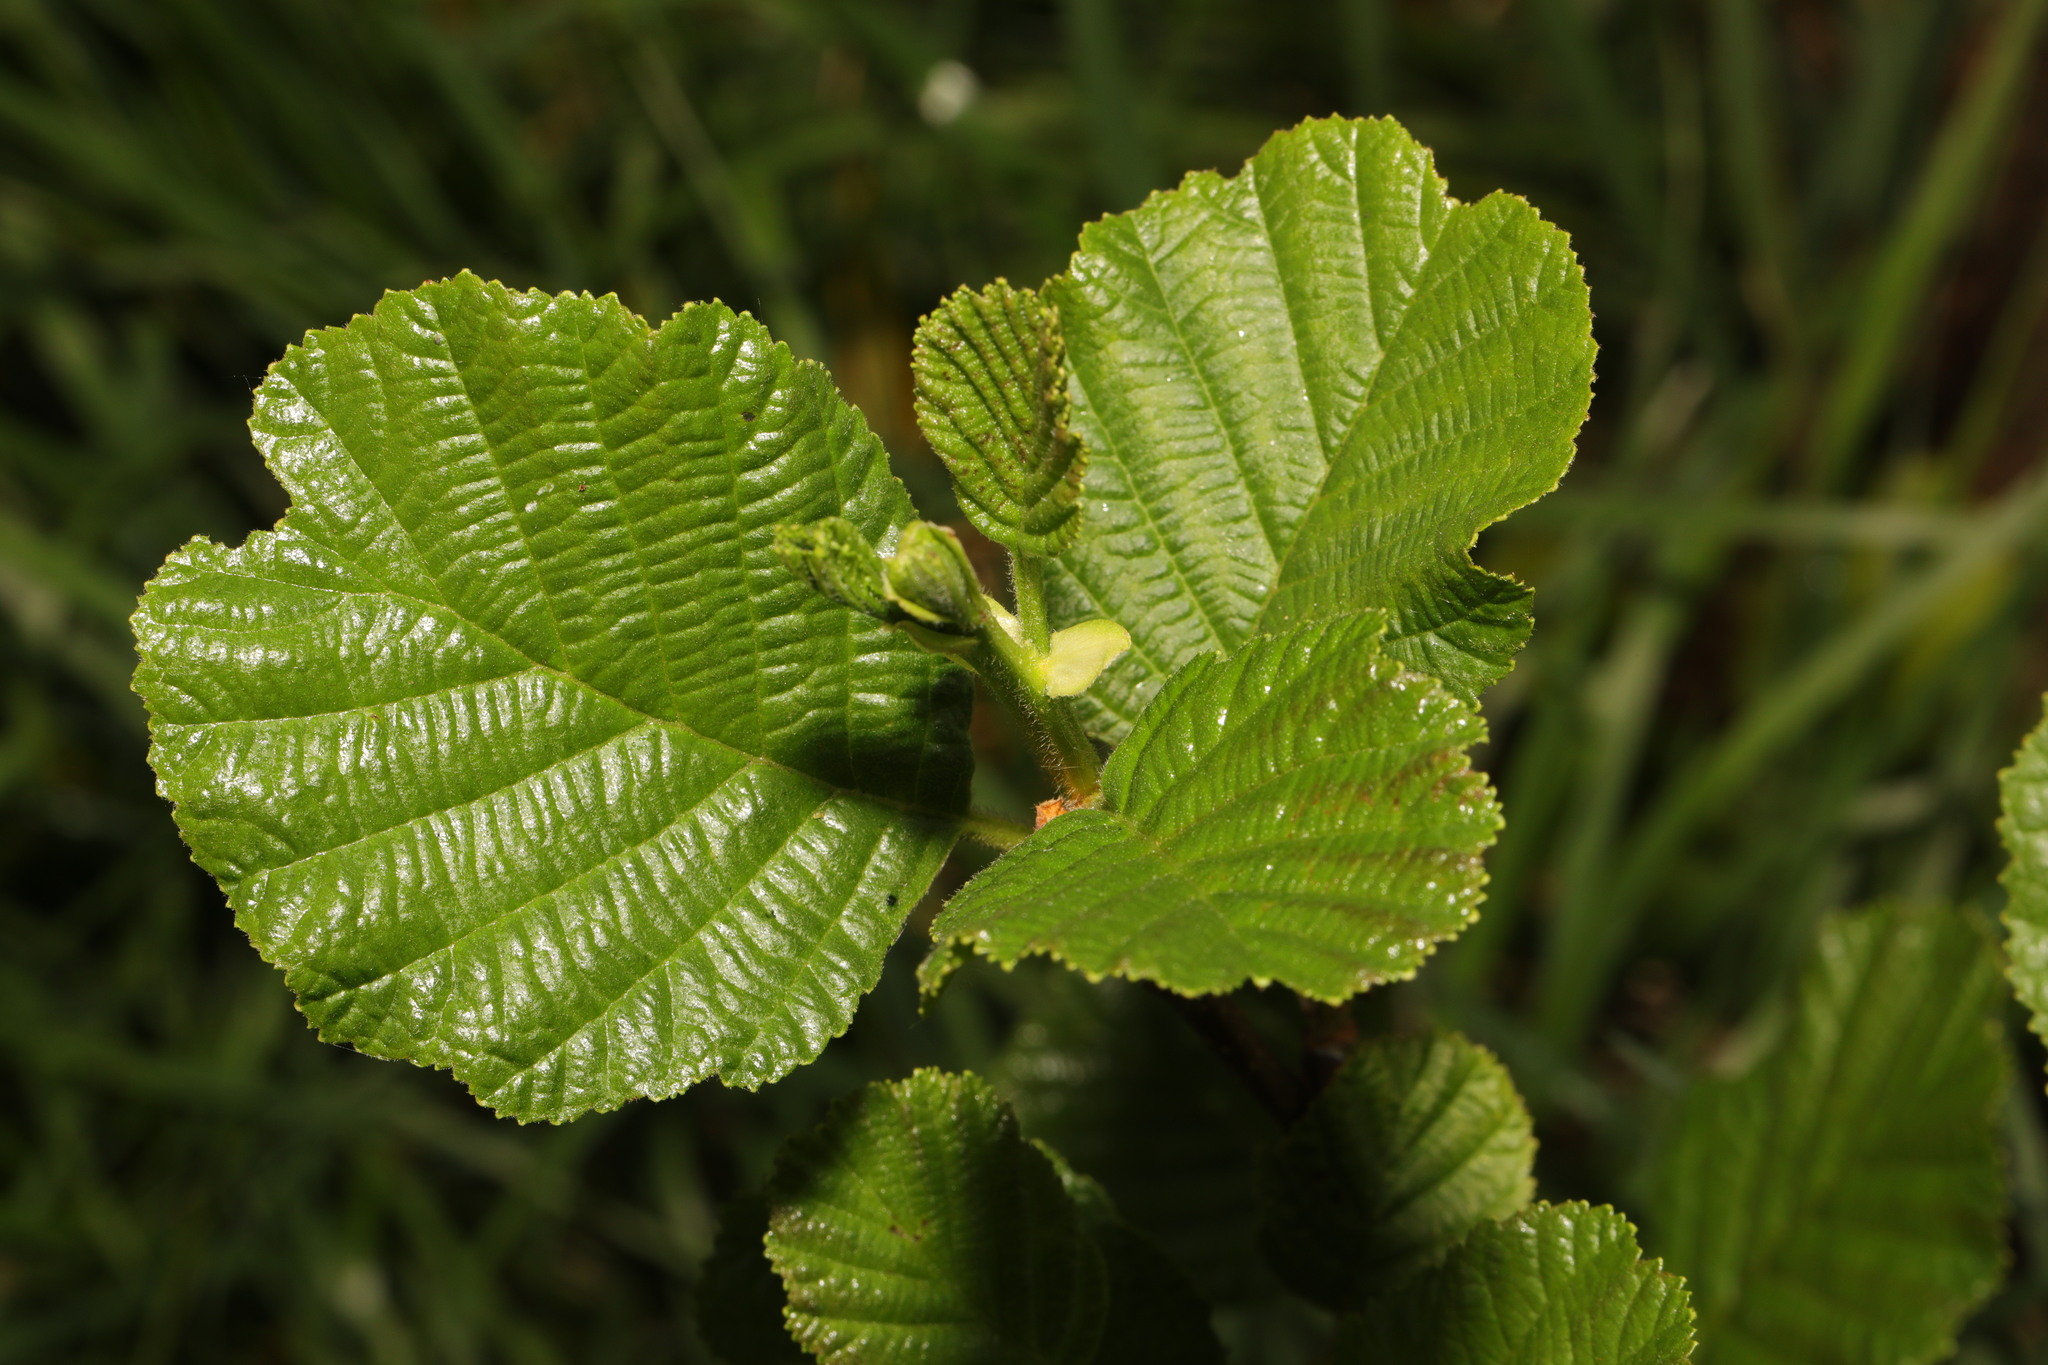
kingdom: Plantae
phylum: Tracheophyta
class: Magnoliopsida
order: Fagales
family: Betulaceae
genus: Alnus
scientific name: Alnus glutinosa
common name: Black alder
